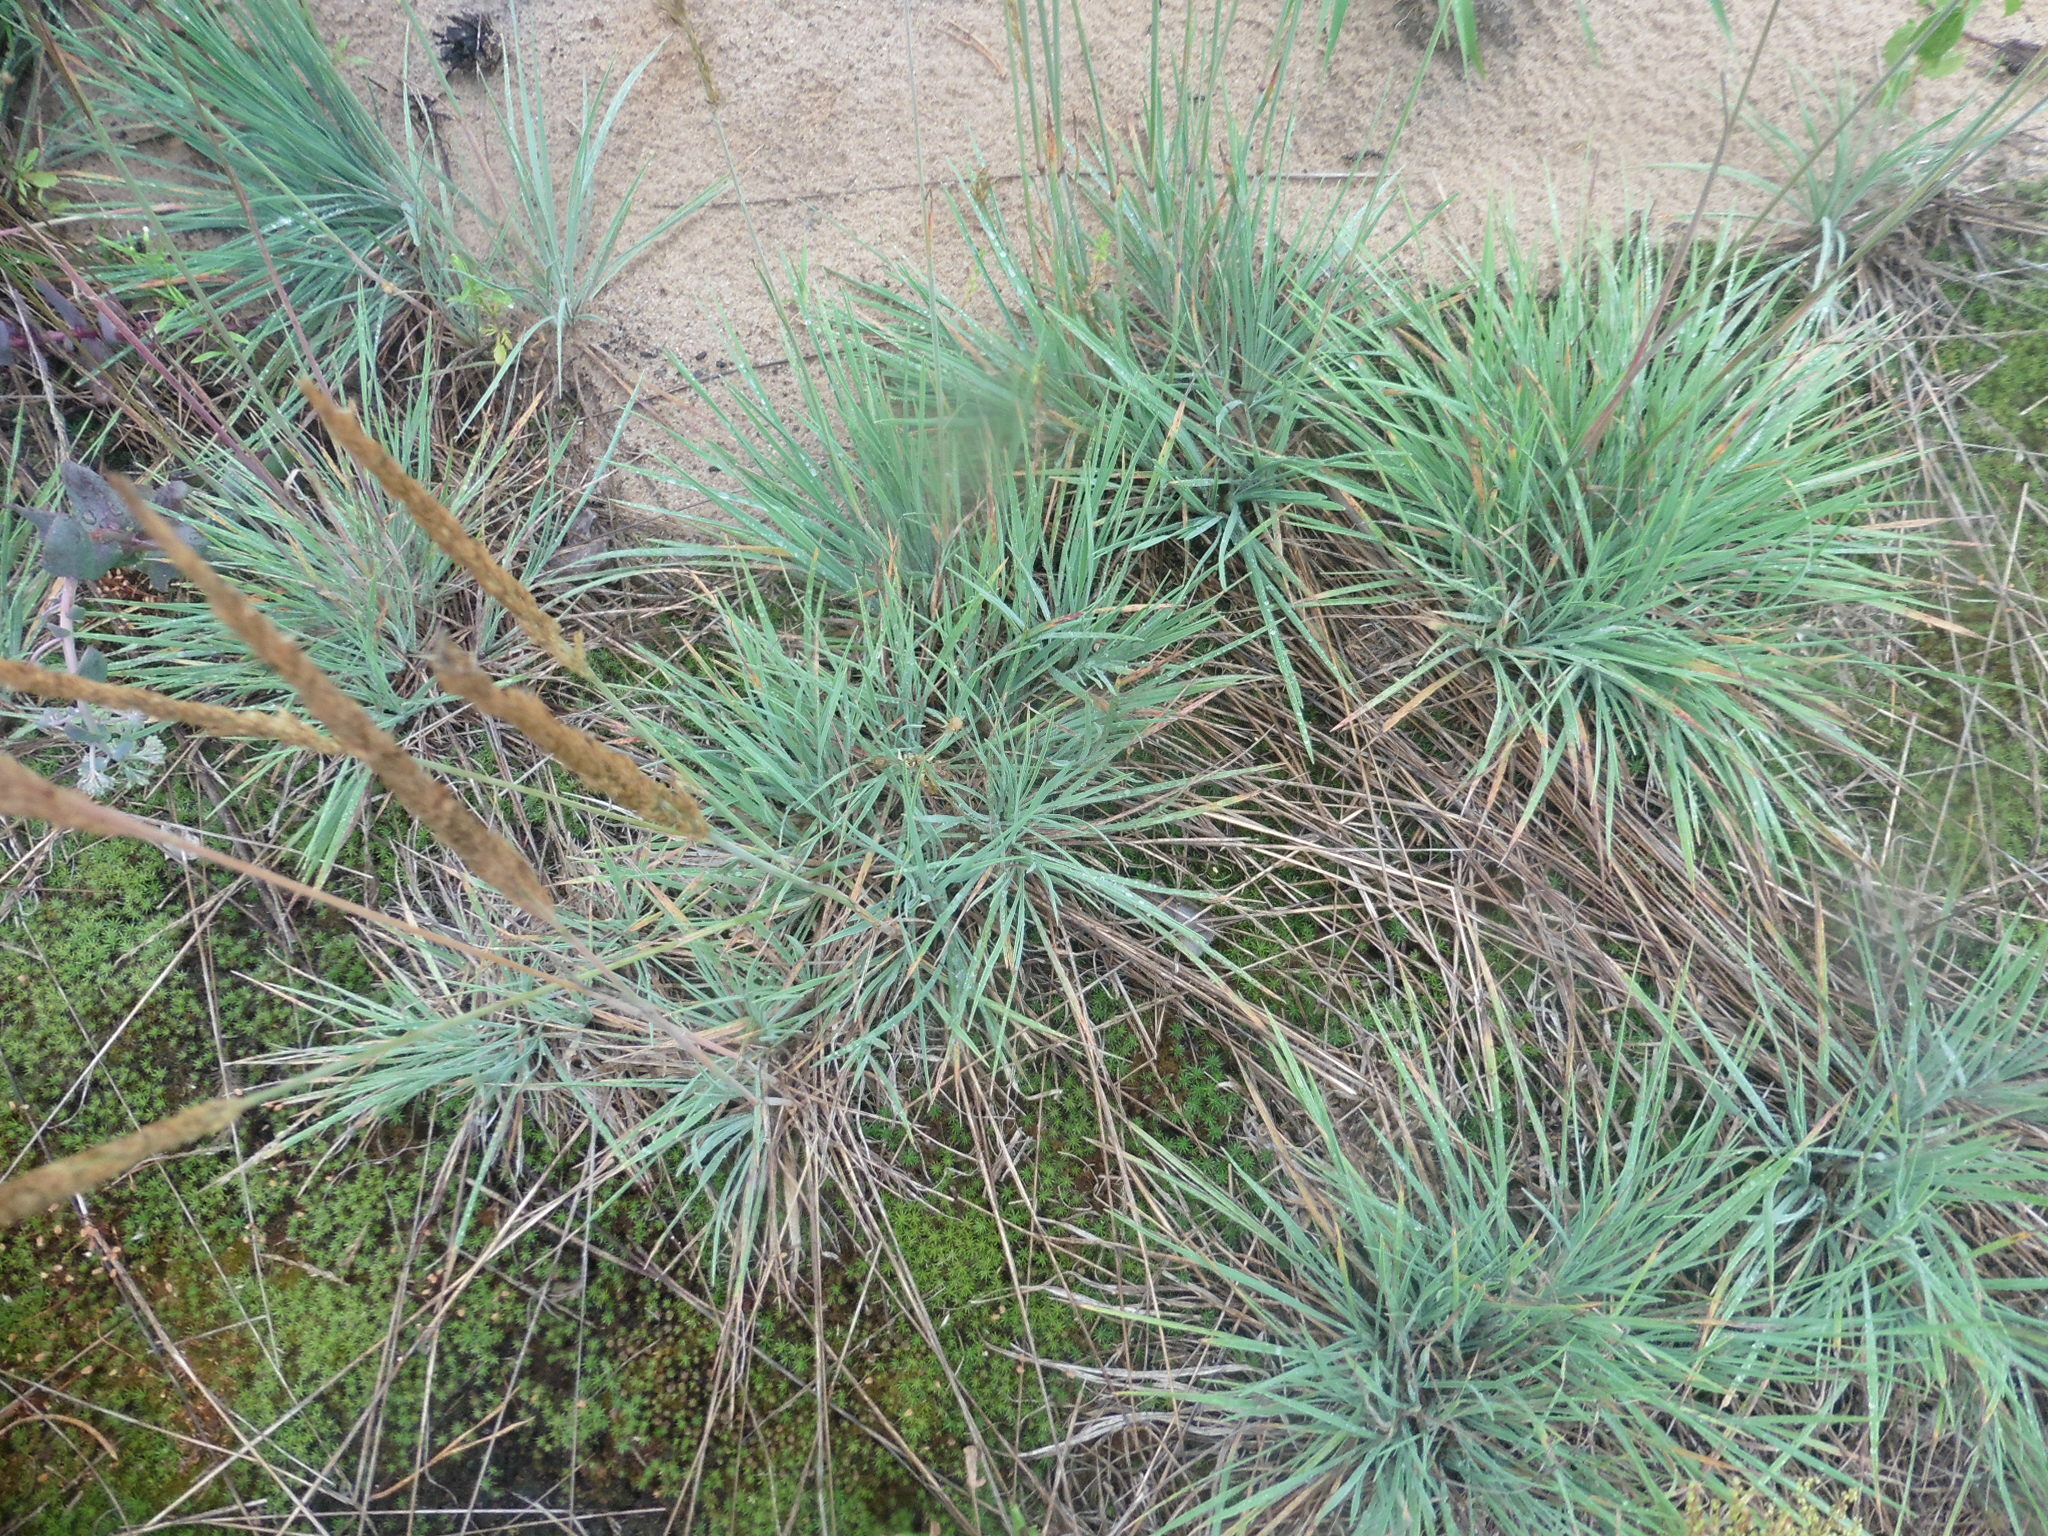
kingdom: Plantae
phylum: Tracheophyta
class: Liliopsida
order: Poales
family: Poaceae
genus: Koeleria
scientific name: Koeleria glauca
